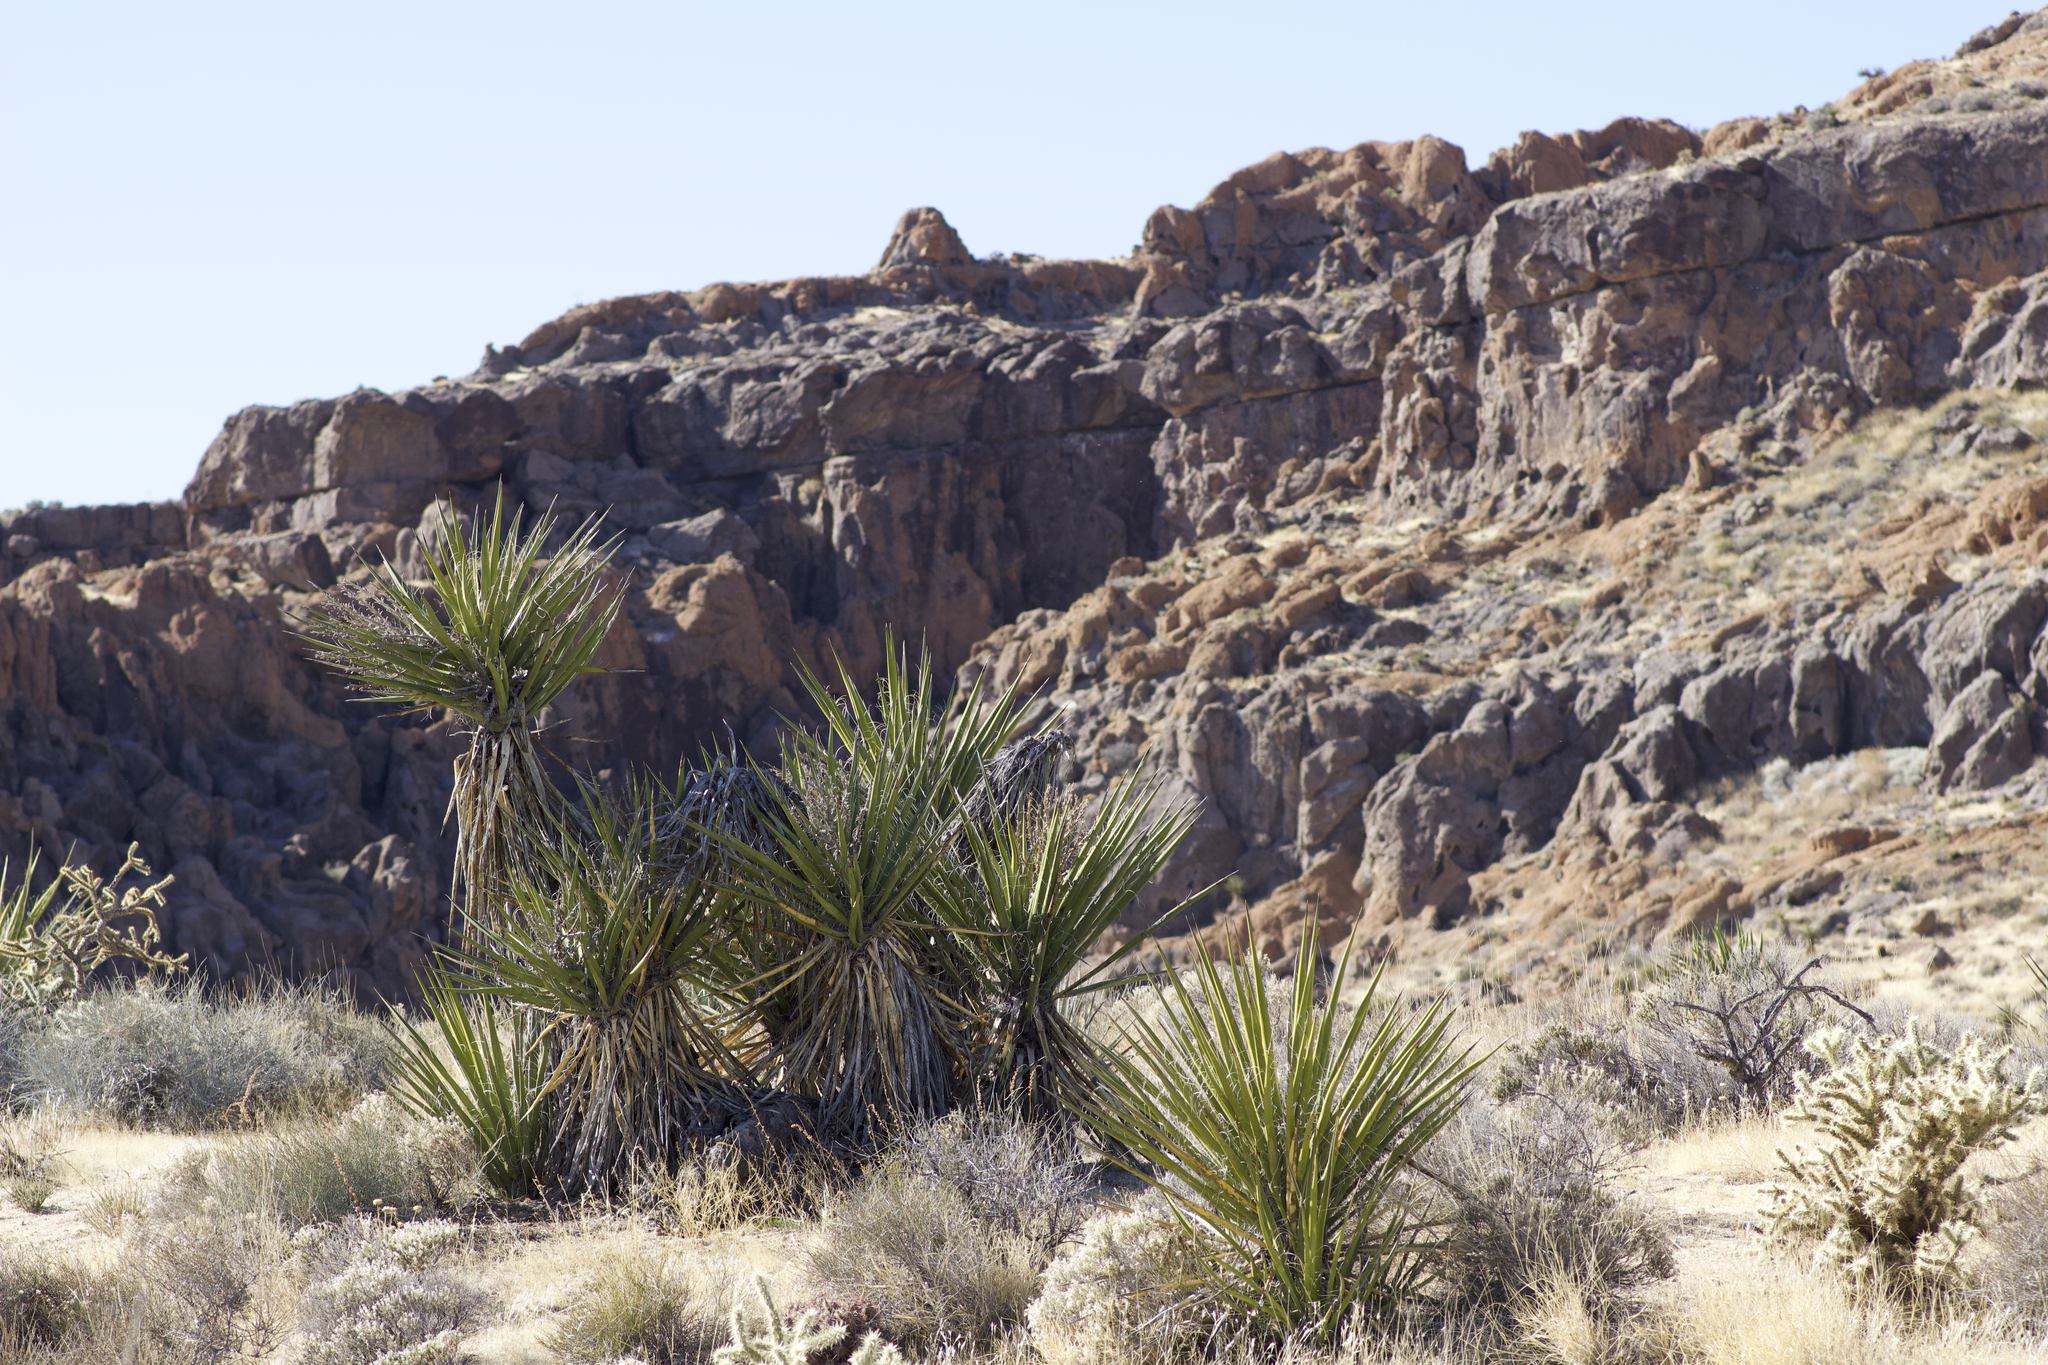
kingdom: Plantae
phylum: Tracheophyta
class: Liliopsida
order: Asparagales
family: Asparagaceae
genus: Yucca
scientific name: Yucca schidigera
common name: Mojave yucca
